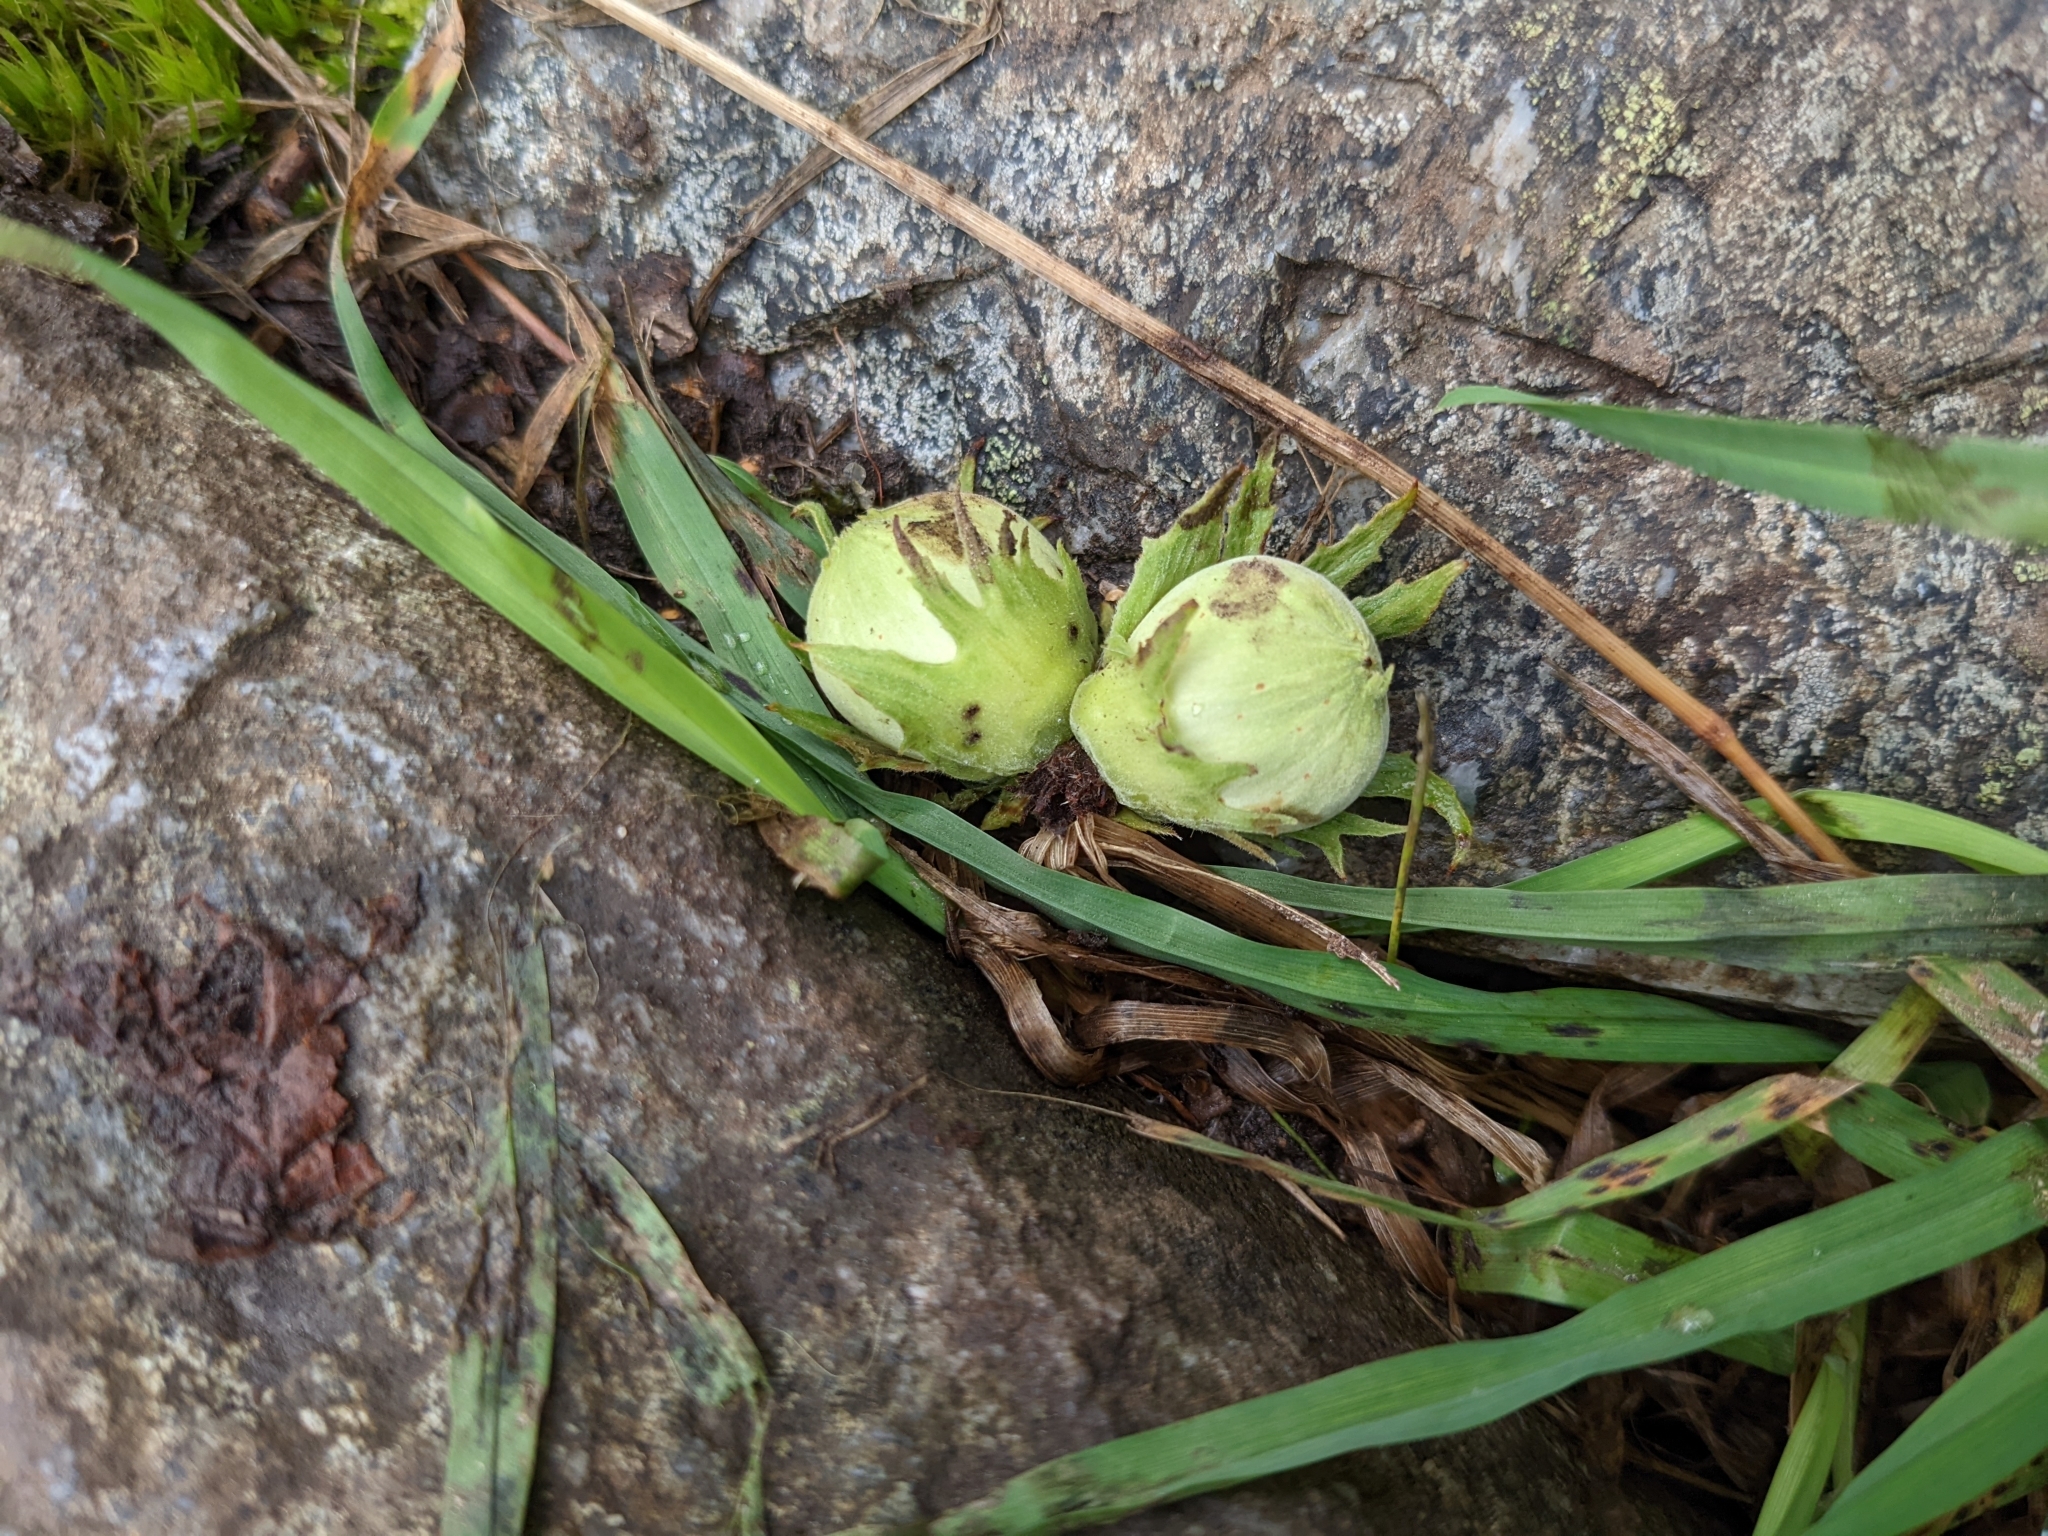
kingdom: Plantae
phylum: Tracheophyta
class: Magnoliopsida
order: Fagales
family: Betulaceae
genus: Corylus
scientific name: Corylus avellana
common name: European hazel
